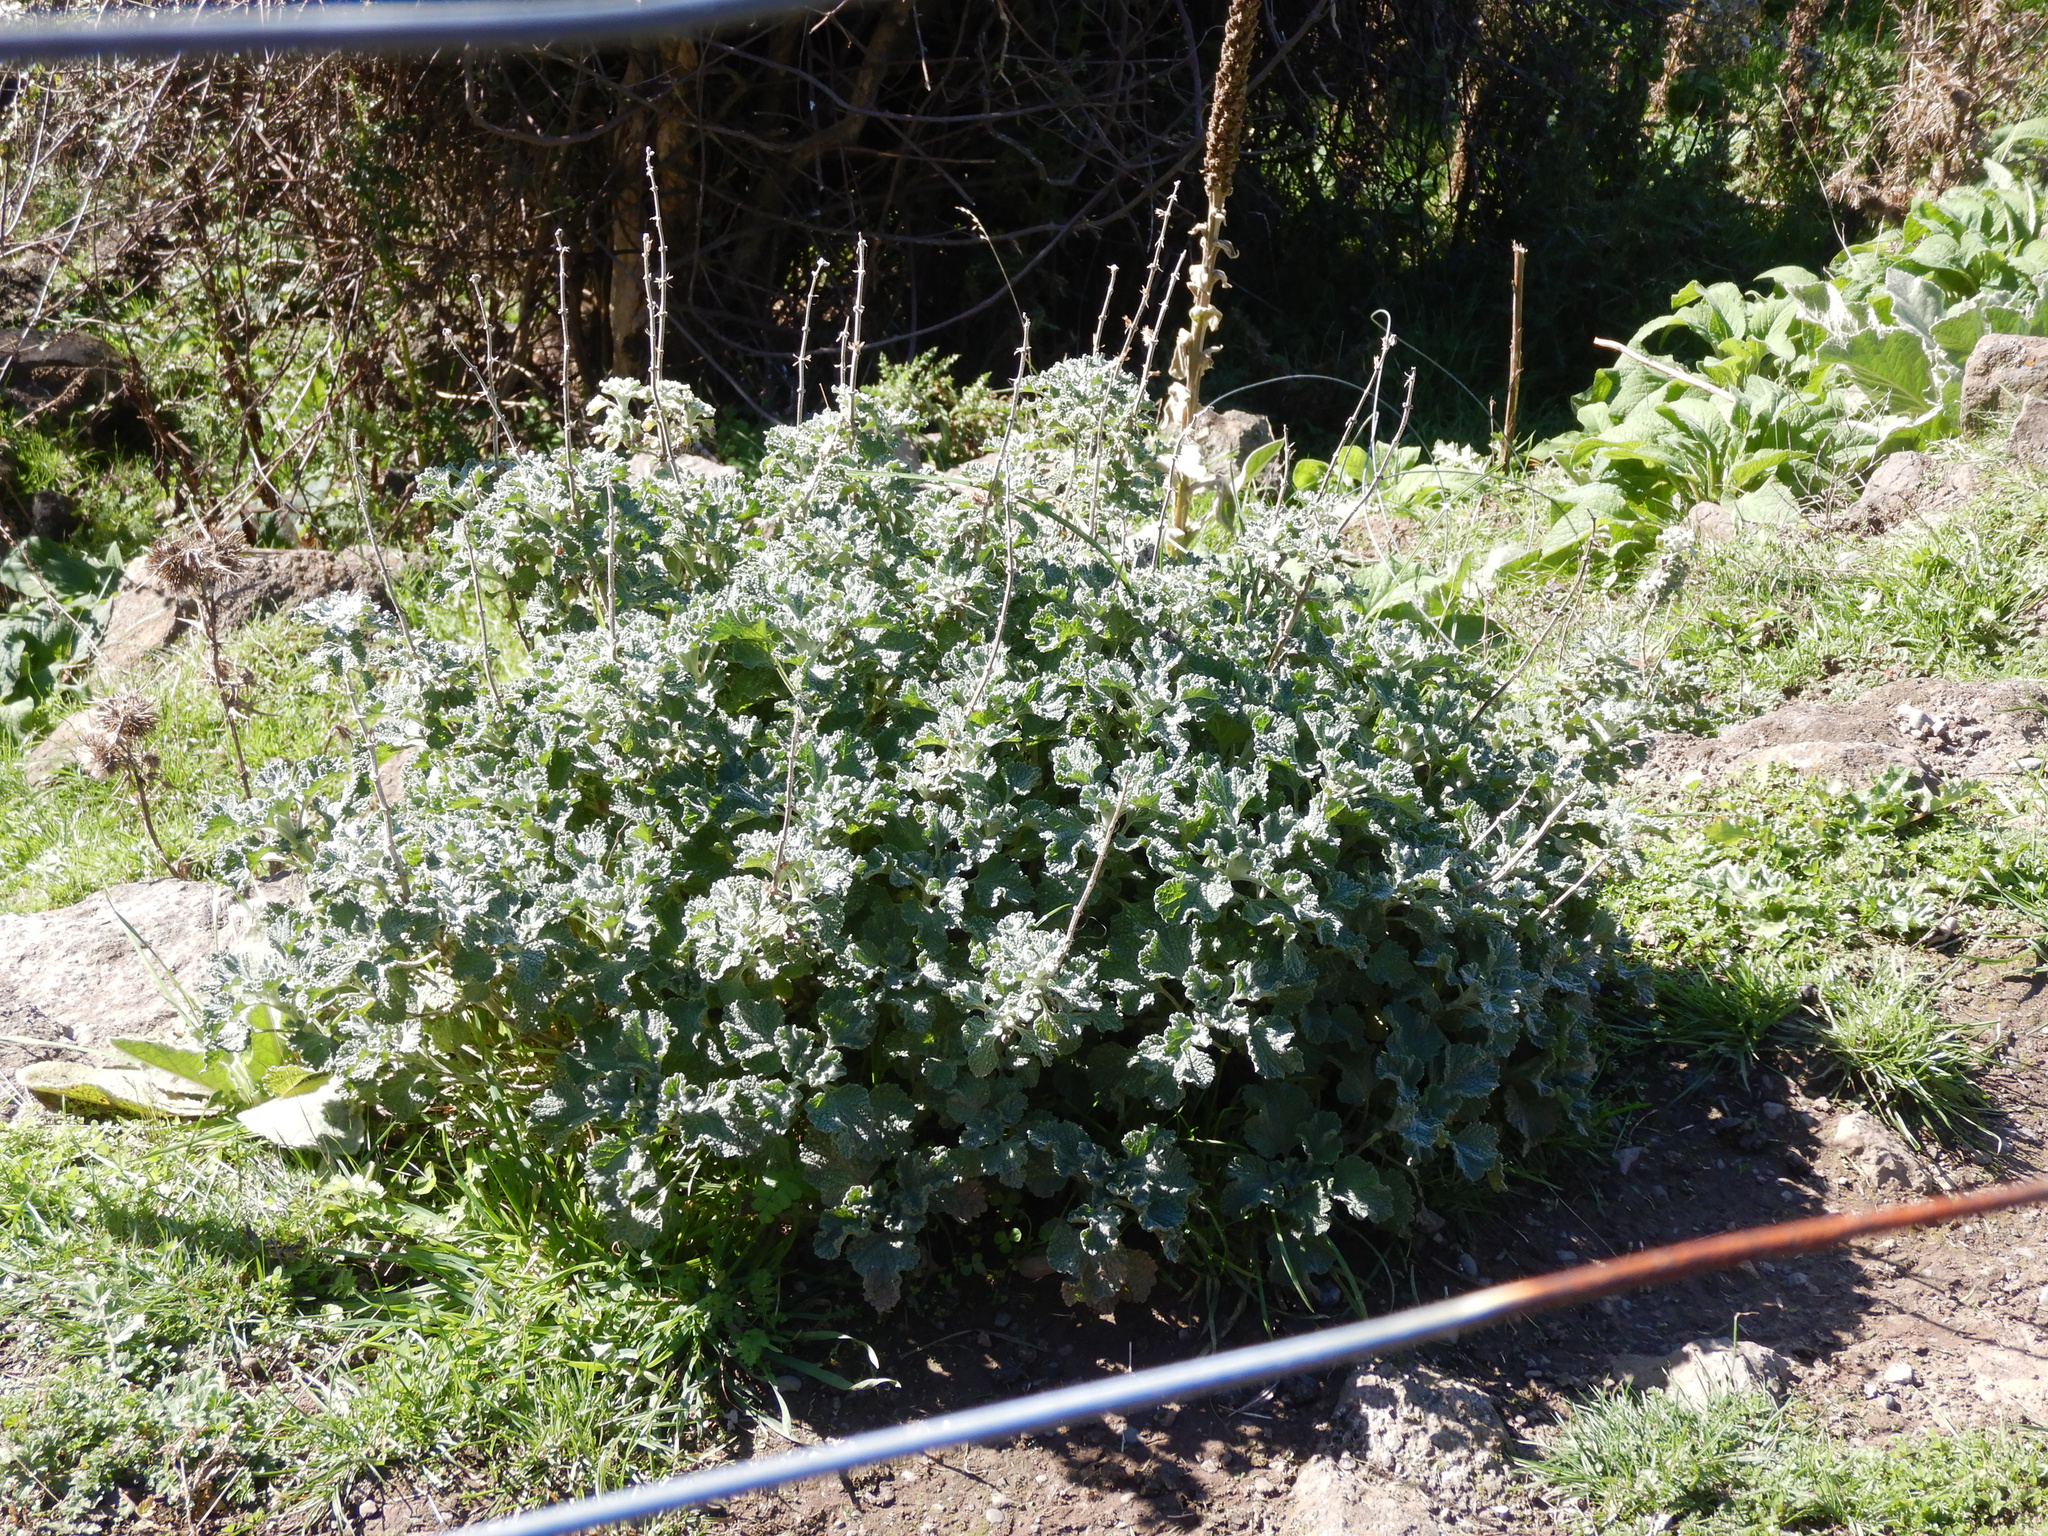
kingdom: Plantae
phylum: Tracheophyta
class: Magnoliopsida
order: Lamiales
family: Lamiaceae
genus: Marrubium
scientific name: Marrubium vulgare
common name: Horehound
